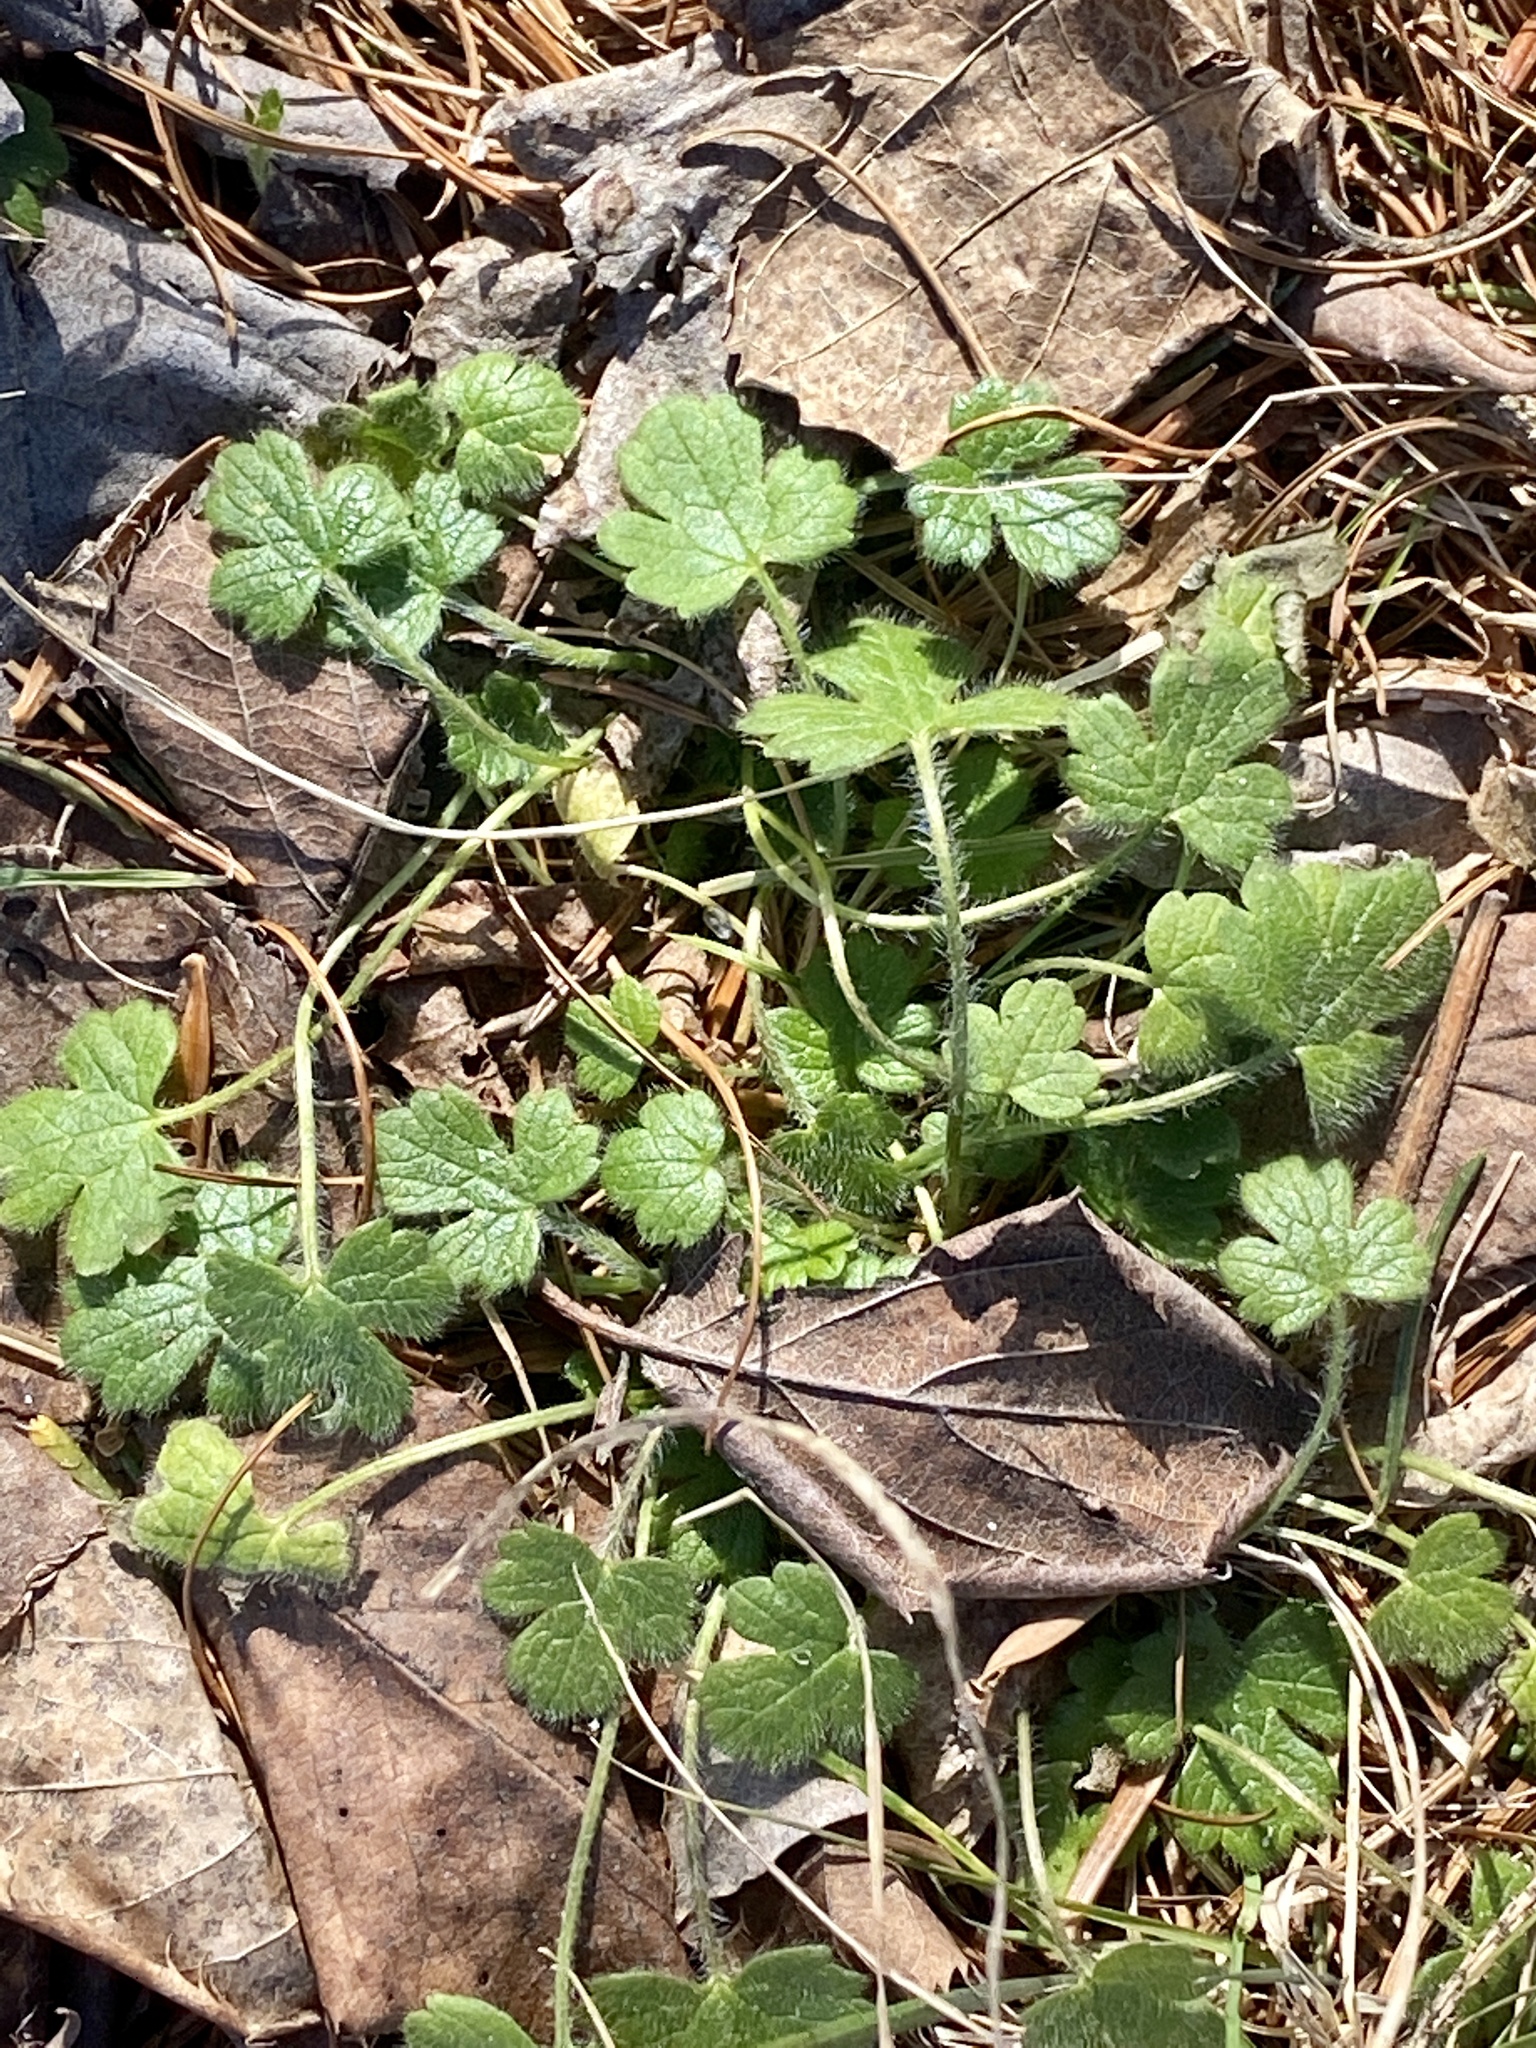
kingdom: Plantae
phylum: Tracheophyta
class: Magnoliopsida
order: Ranunculales
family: Ranunculaceae
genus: Ranunculus
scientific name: Ranunculus bulbosus
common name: Bulbous buttercup
